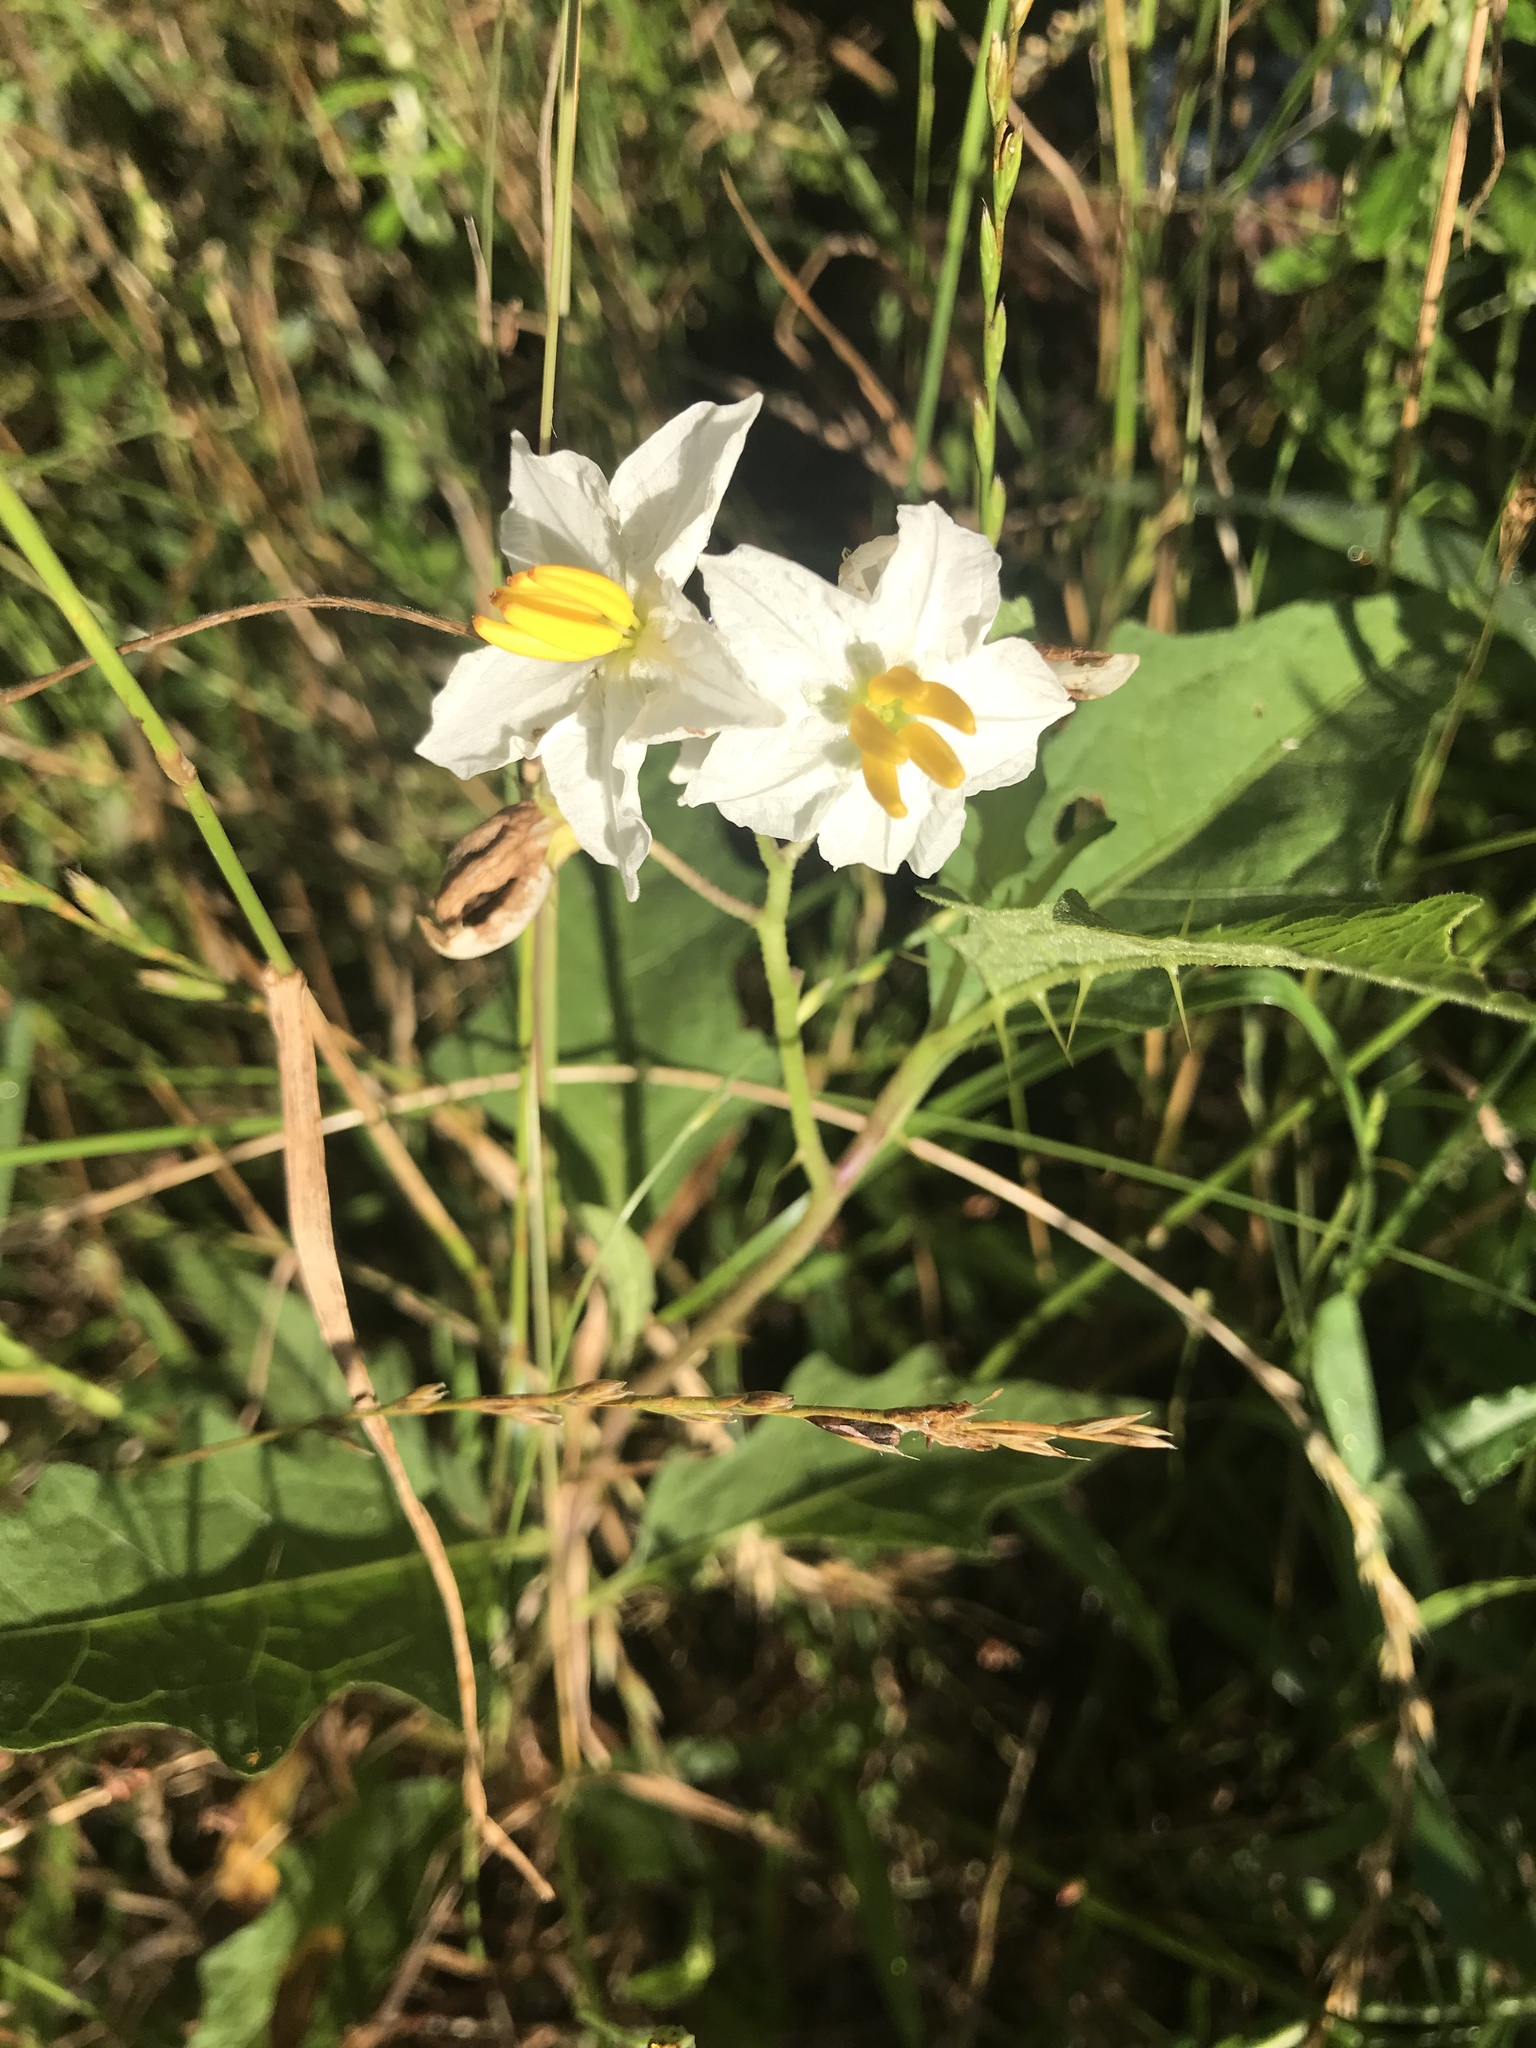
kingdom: Plantae
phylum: Tracheophyta
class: Magnoliopsida
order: Solanales
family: Solanaceae
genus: Solanum
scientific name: Solanum carolinense
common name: Horse-nettle
